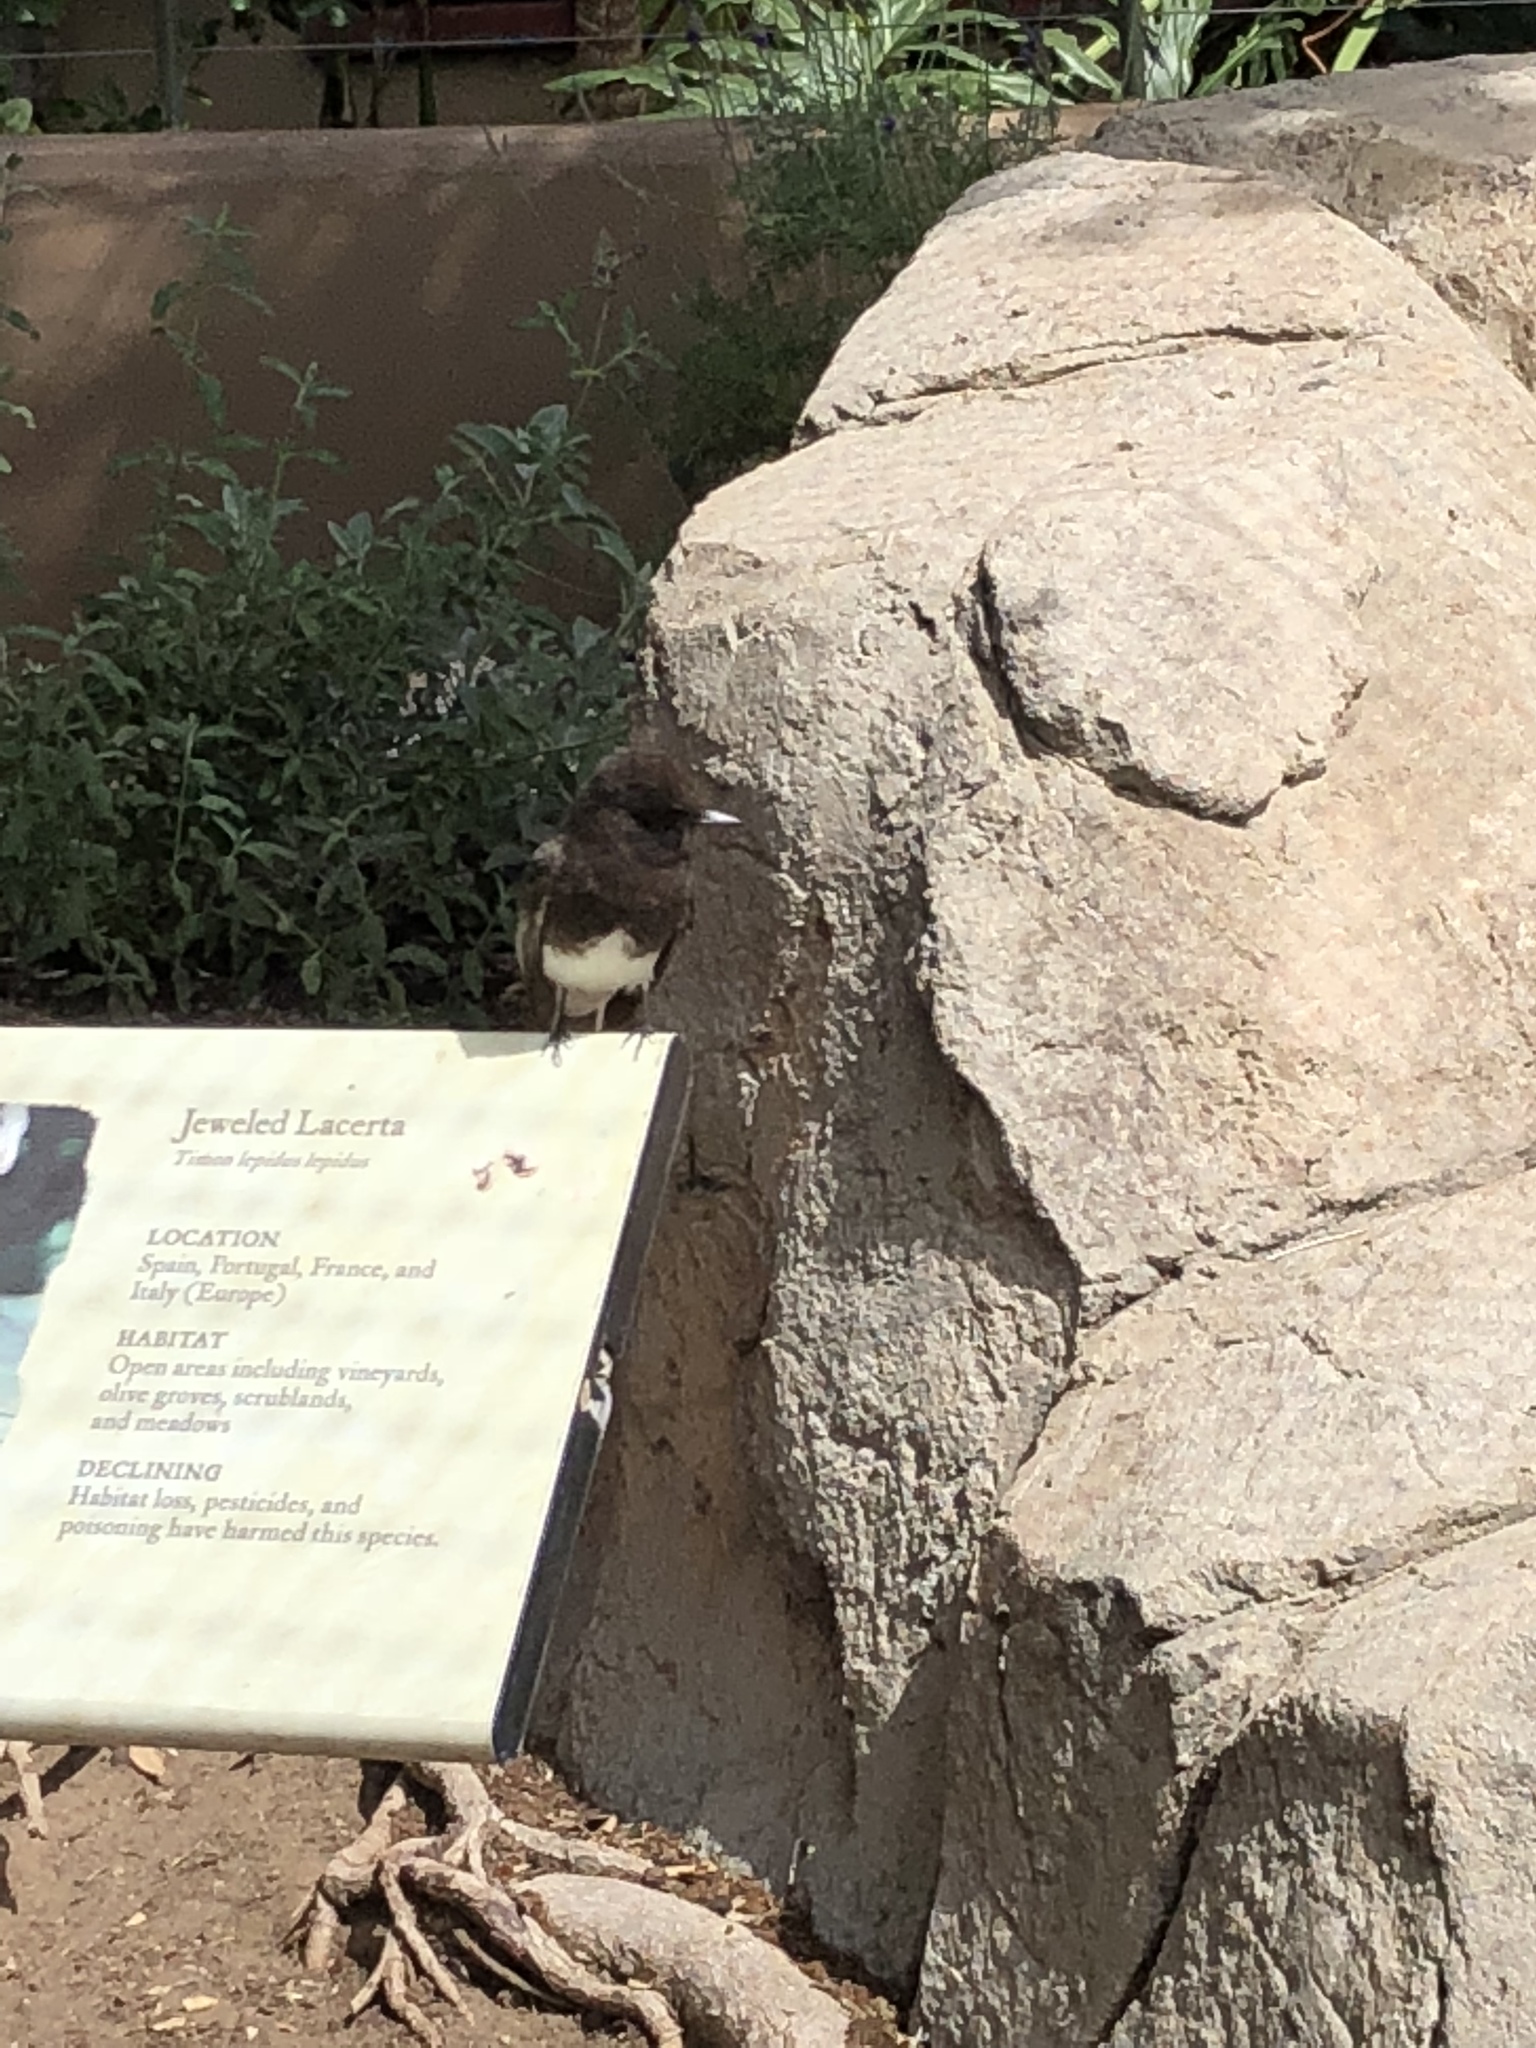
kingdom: Animalia
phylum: Chordata
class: Aves
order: Passeriformes
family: Tyrannidae
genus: Sayornis
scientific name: Sayornis nigricans
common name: Black phoebe
